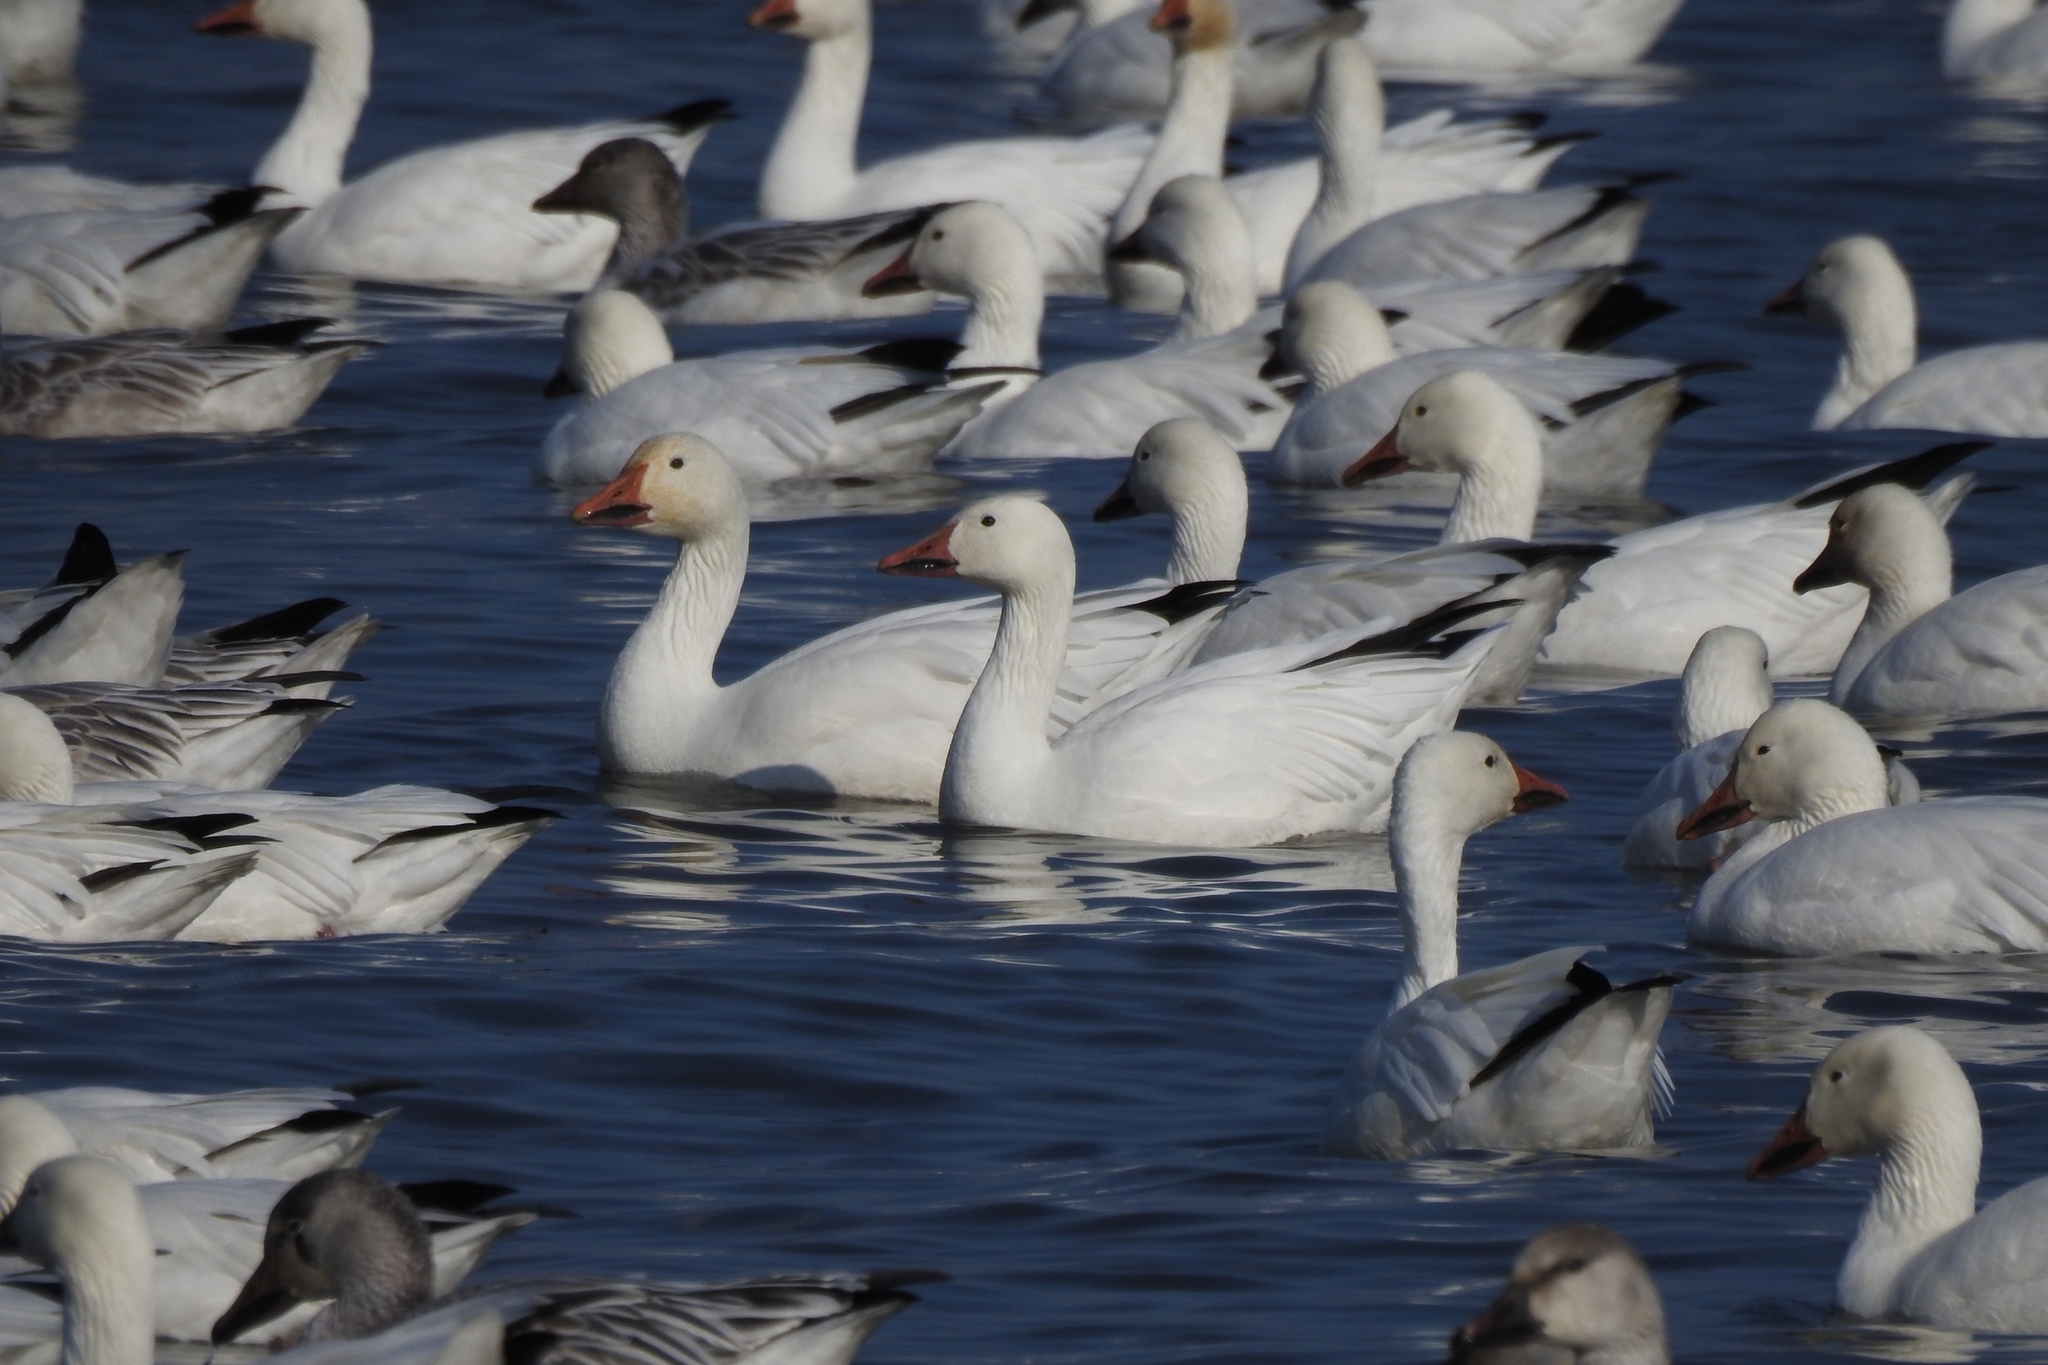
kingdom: Animalia
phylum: Chordata
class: Aves
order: Anseriformes
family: Anatidae
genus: Anser
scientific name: Anser caerulescens
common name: Snow goose
